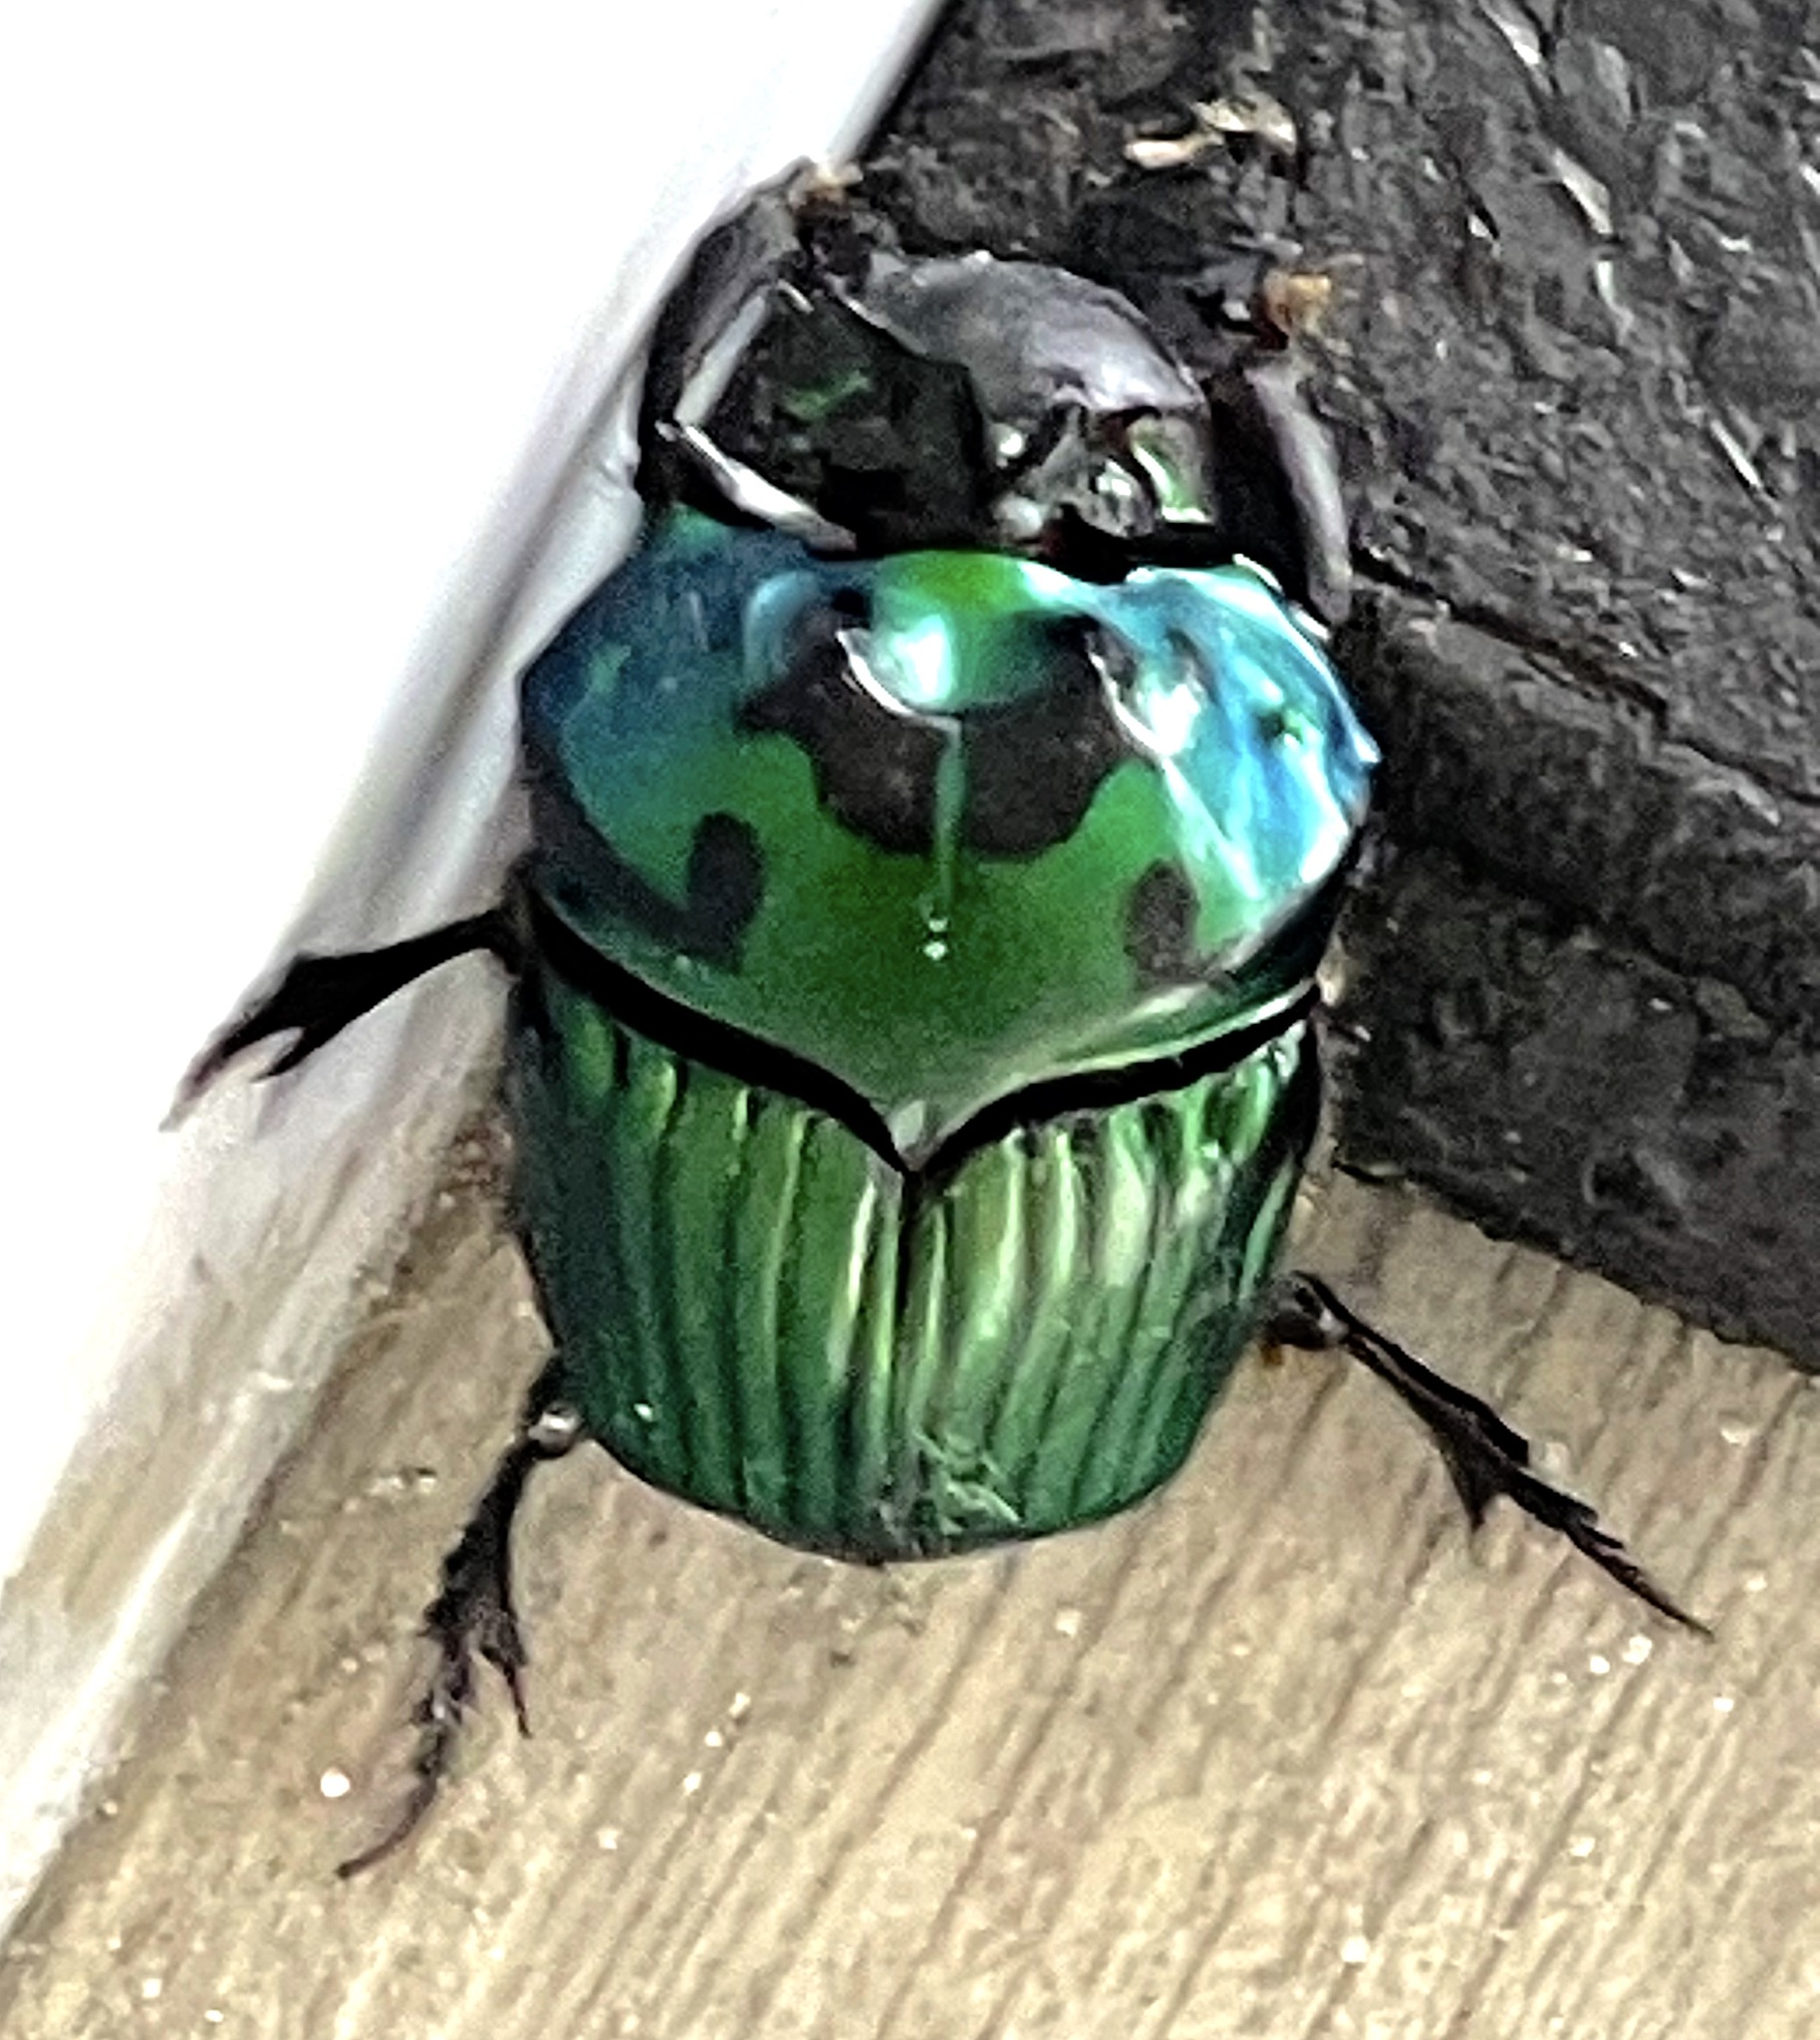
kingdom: Animalia
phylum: Arthropoda
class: Insecta
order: Coleoptera
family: Scarabaeidae
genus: Oxysternon
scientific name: Oxysternon conspicillatum
